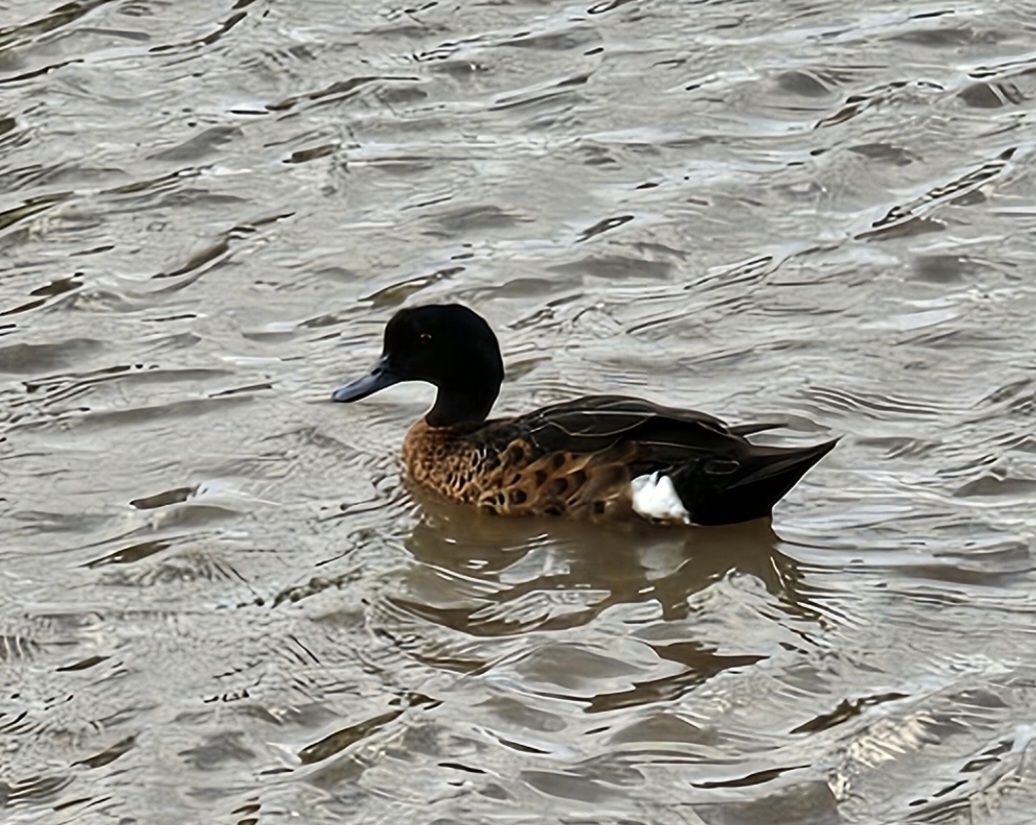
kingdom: Animalia
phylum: Chordata
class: Aves
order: Anseriformes
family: Anatidae
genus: Anas
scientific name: Anas castanea
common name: Chestnut teal
